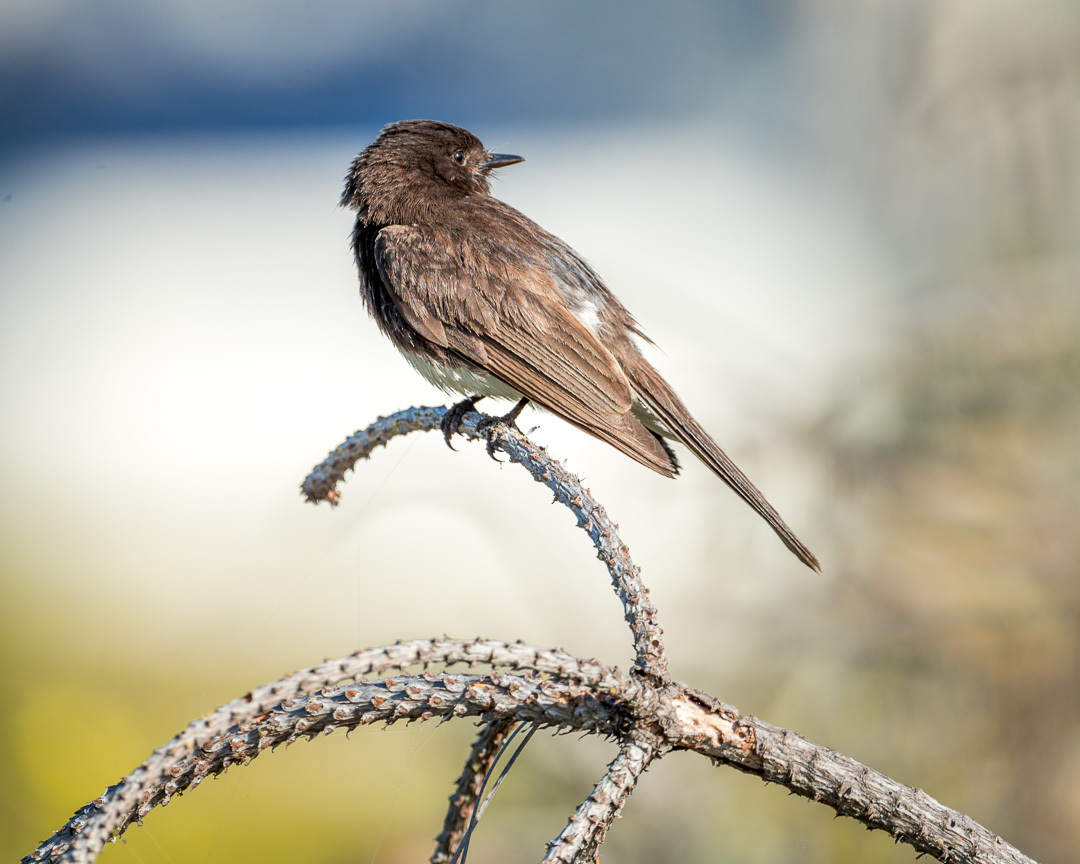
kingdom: Animalia
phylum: Chordata
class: Aves
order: Passeriformes
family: Tyrannidae
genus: Sayornis
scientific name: Sayornis nigricans
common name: Black phoebe
